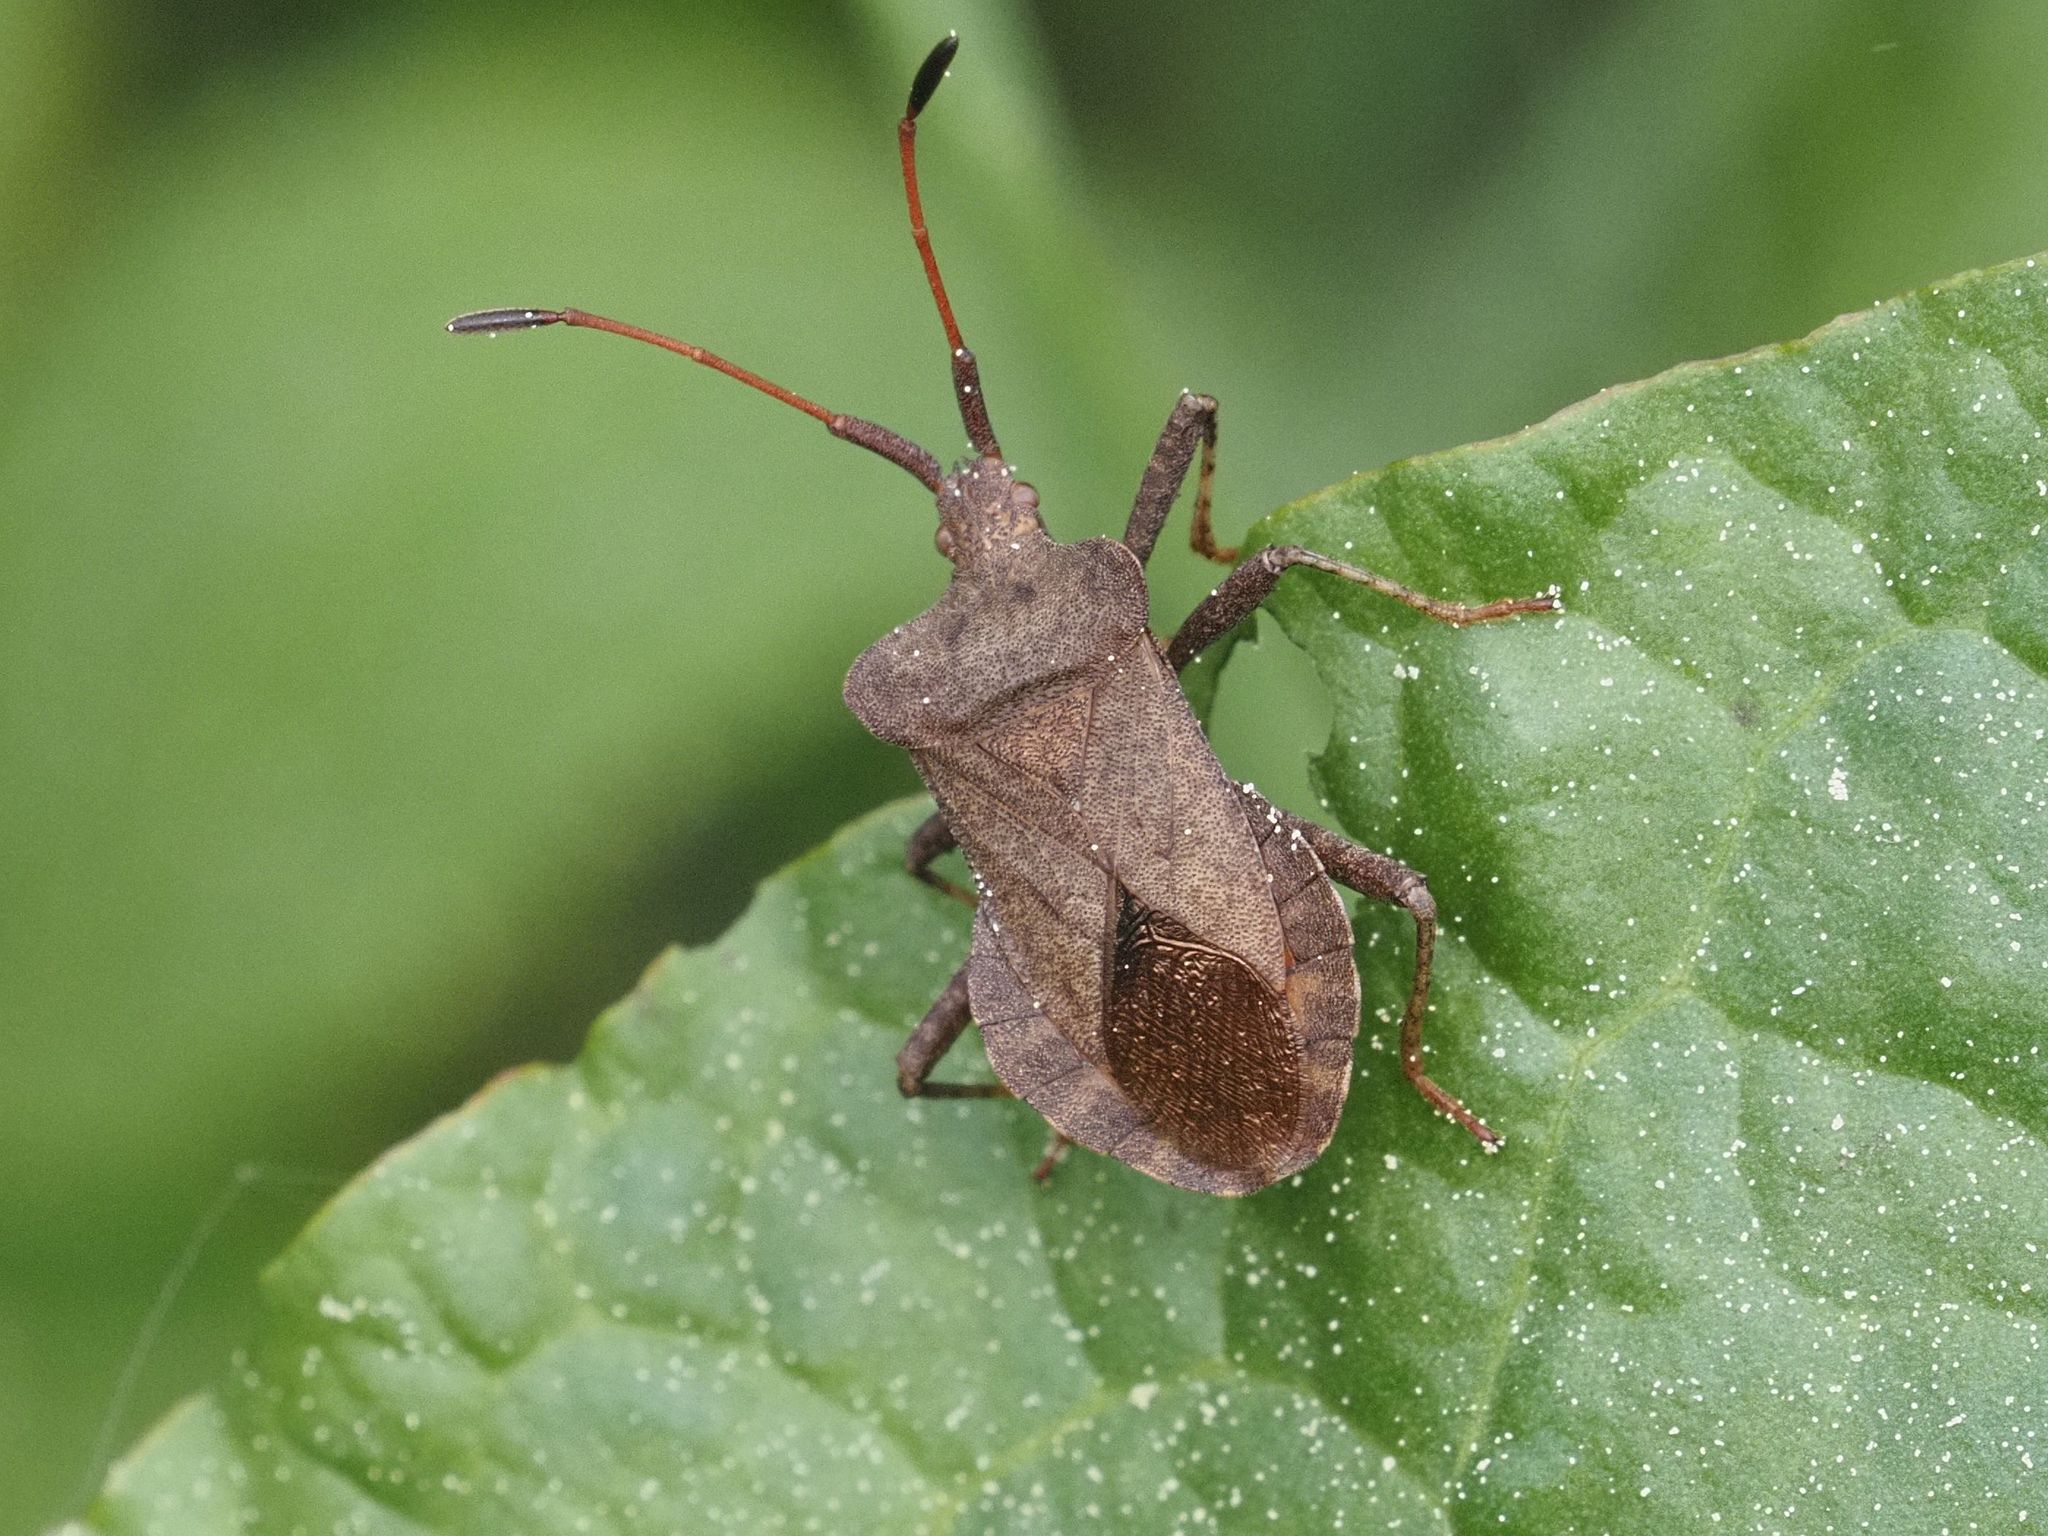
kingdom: Animalia
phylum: Arthropoda
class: Insecta
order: Hemiptera
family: Coreidae
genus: Coreus
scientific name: Coreus marginatus
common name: Dock bug
